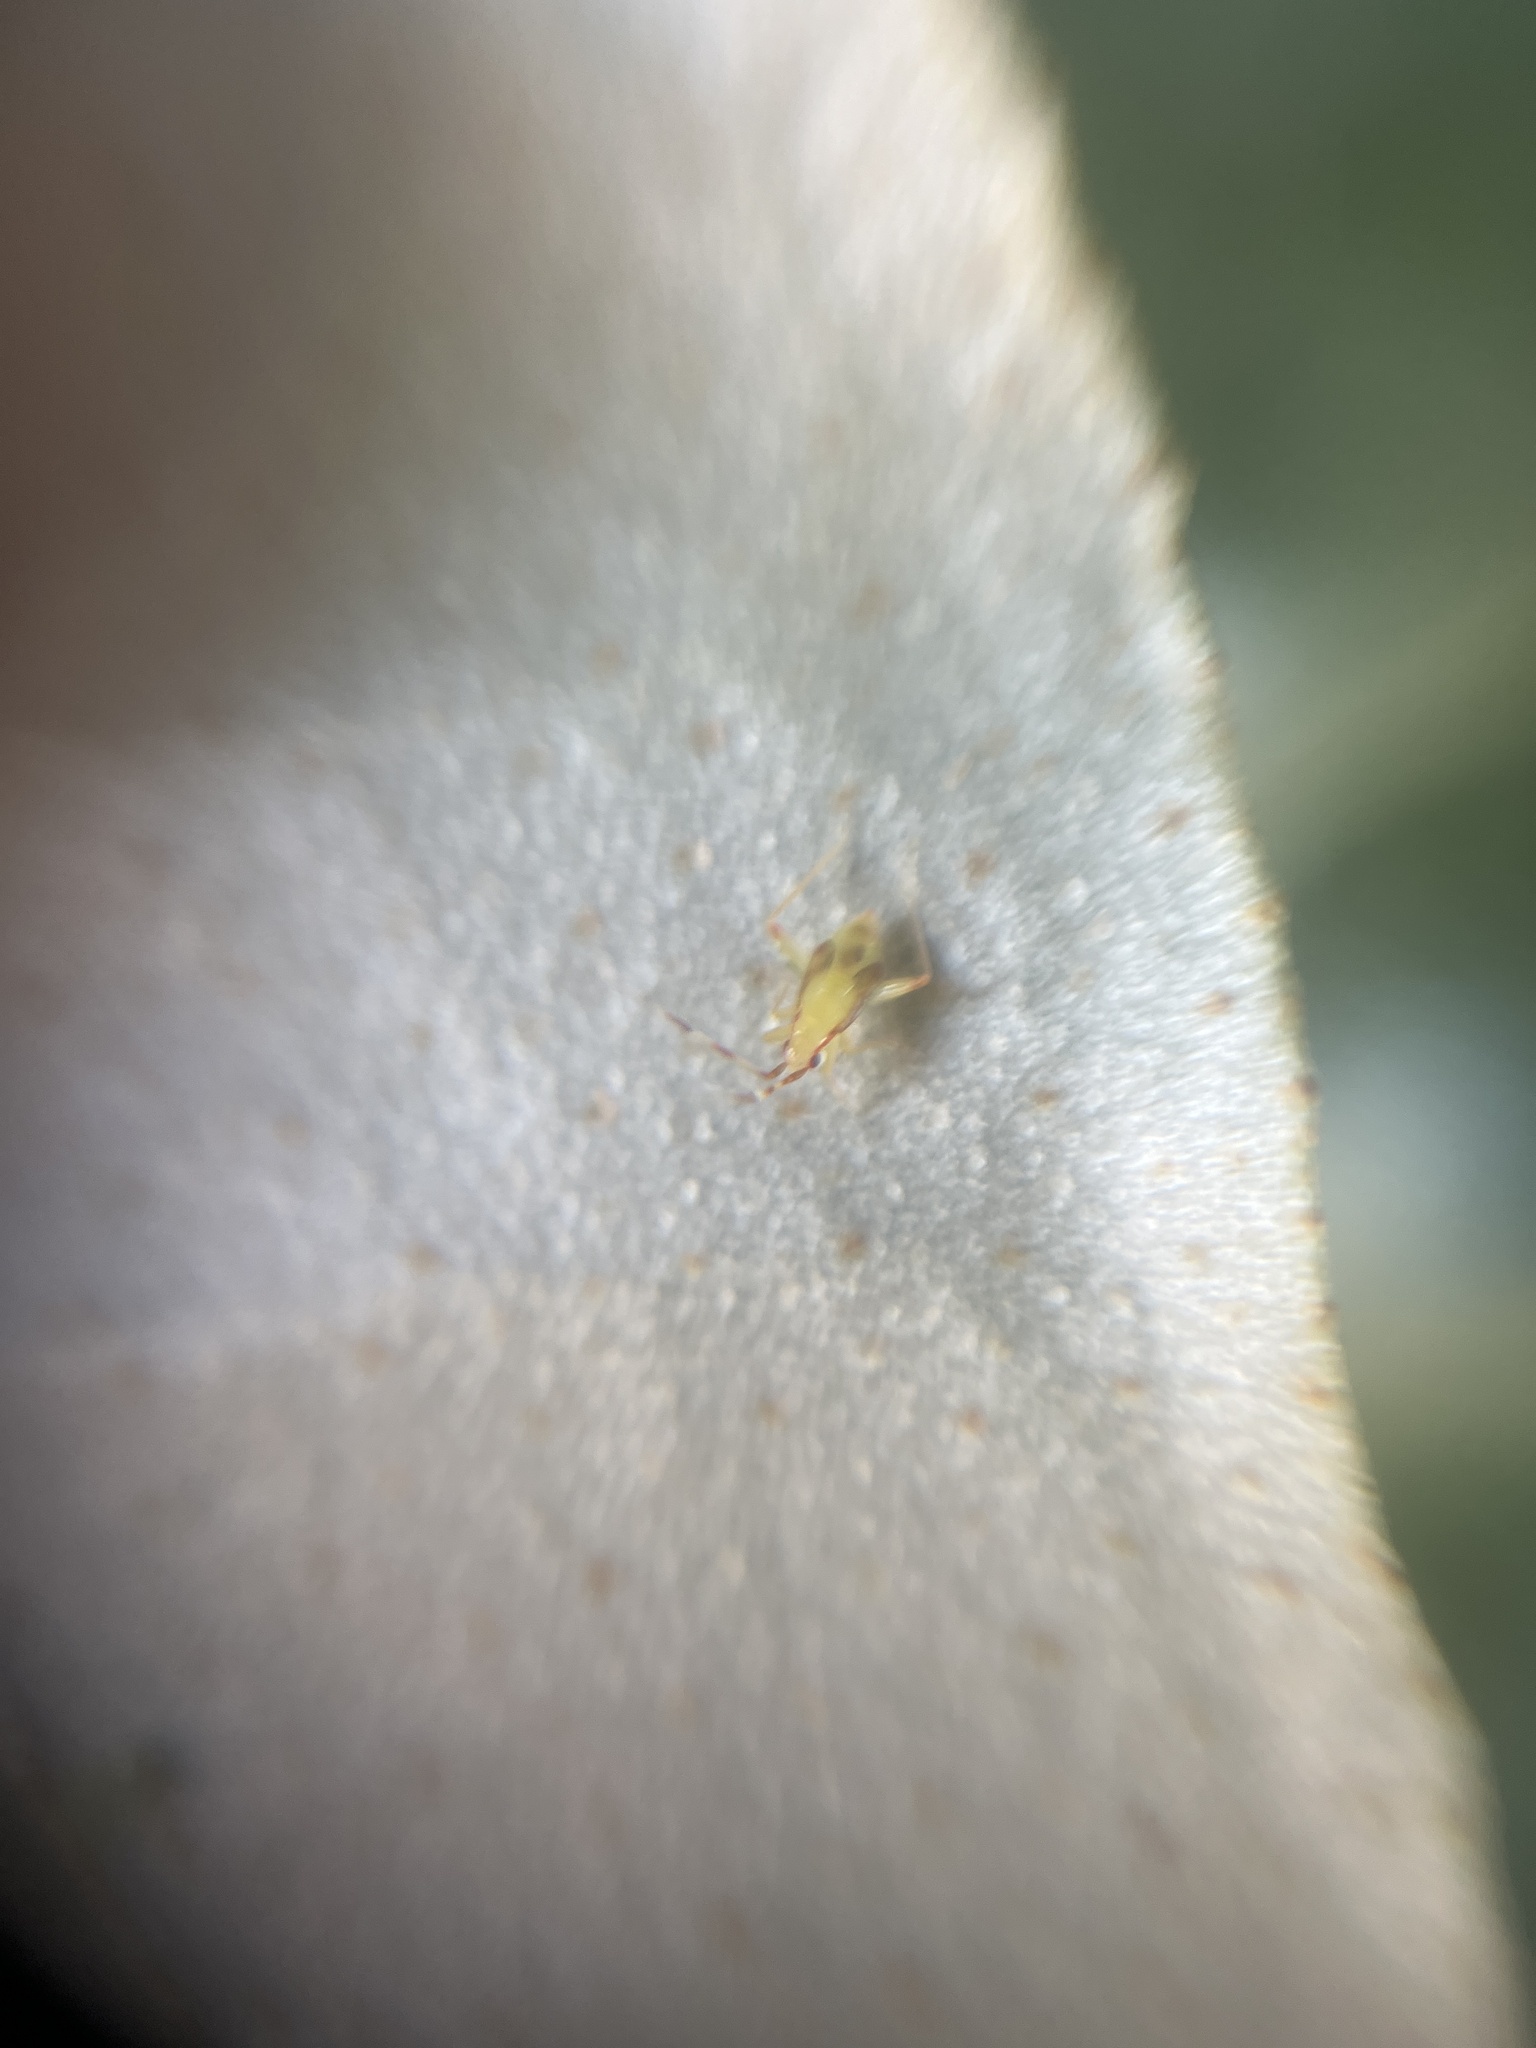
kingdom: Animalia
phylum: Arthropoda
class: Insecta
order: Hemiptera
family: Miridae
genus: Campyloneura
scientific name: Campyloneura virgula
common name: Predatory bug
